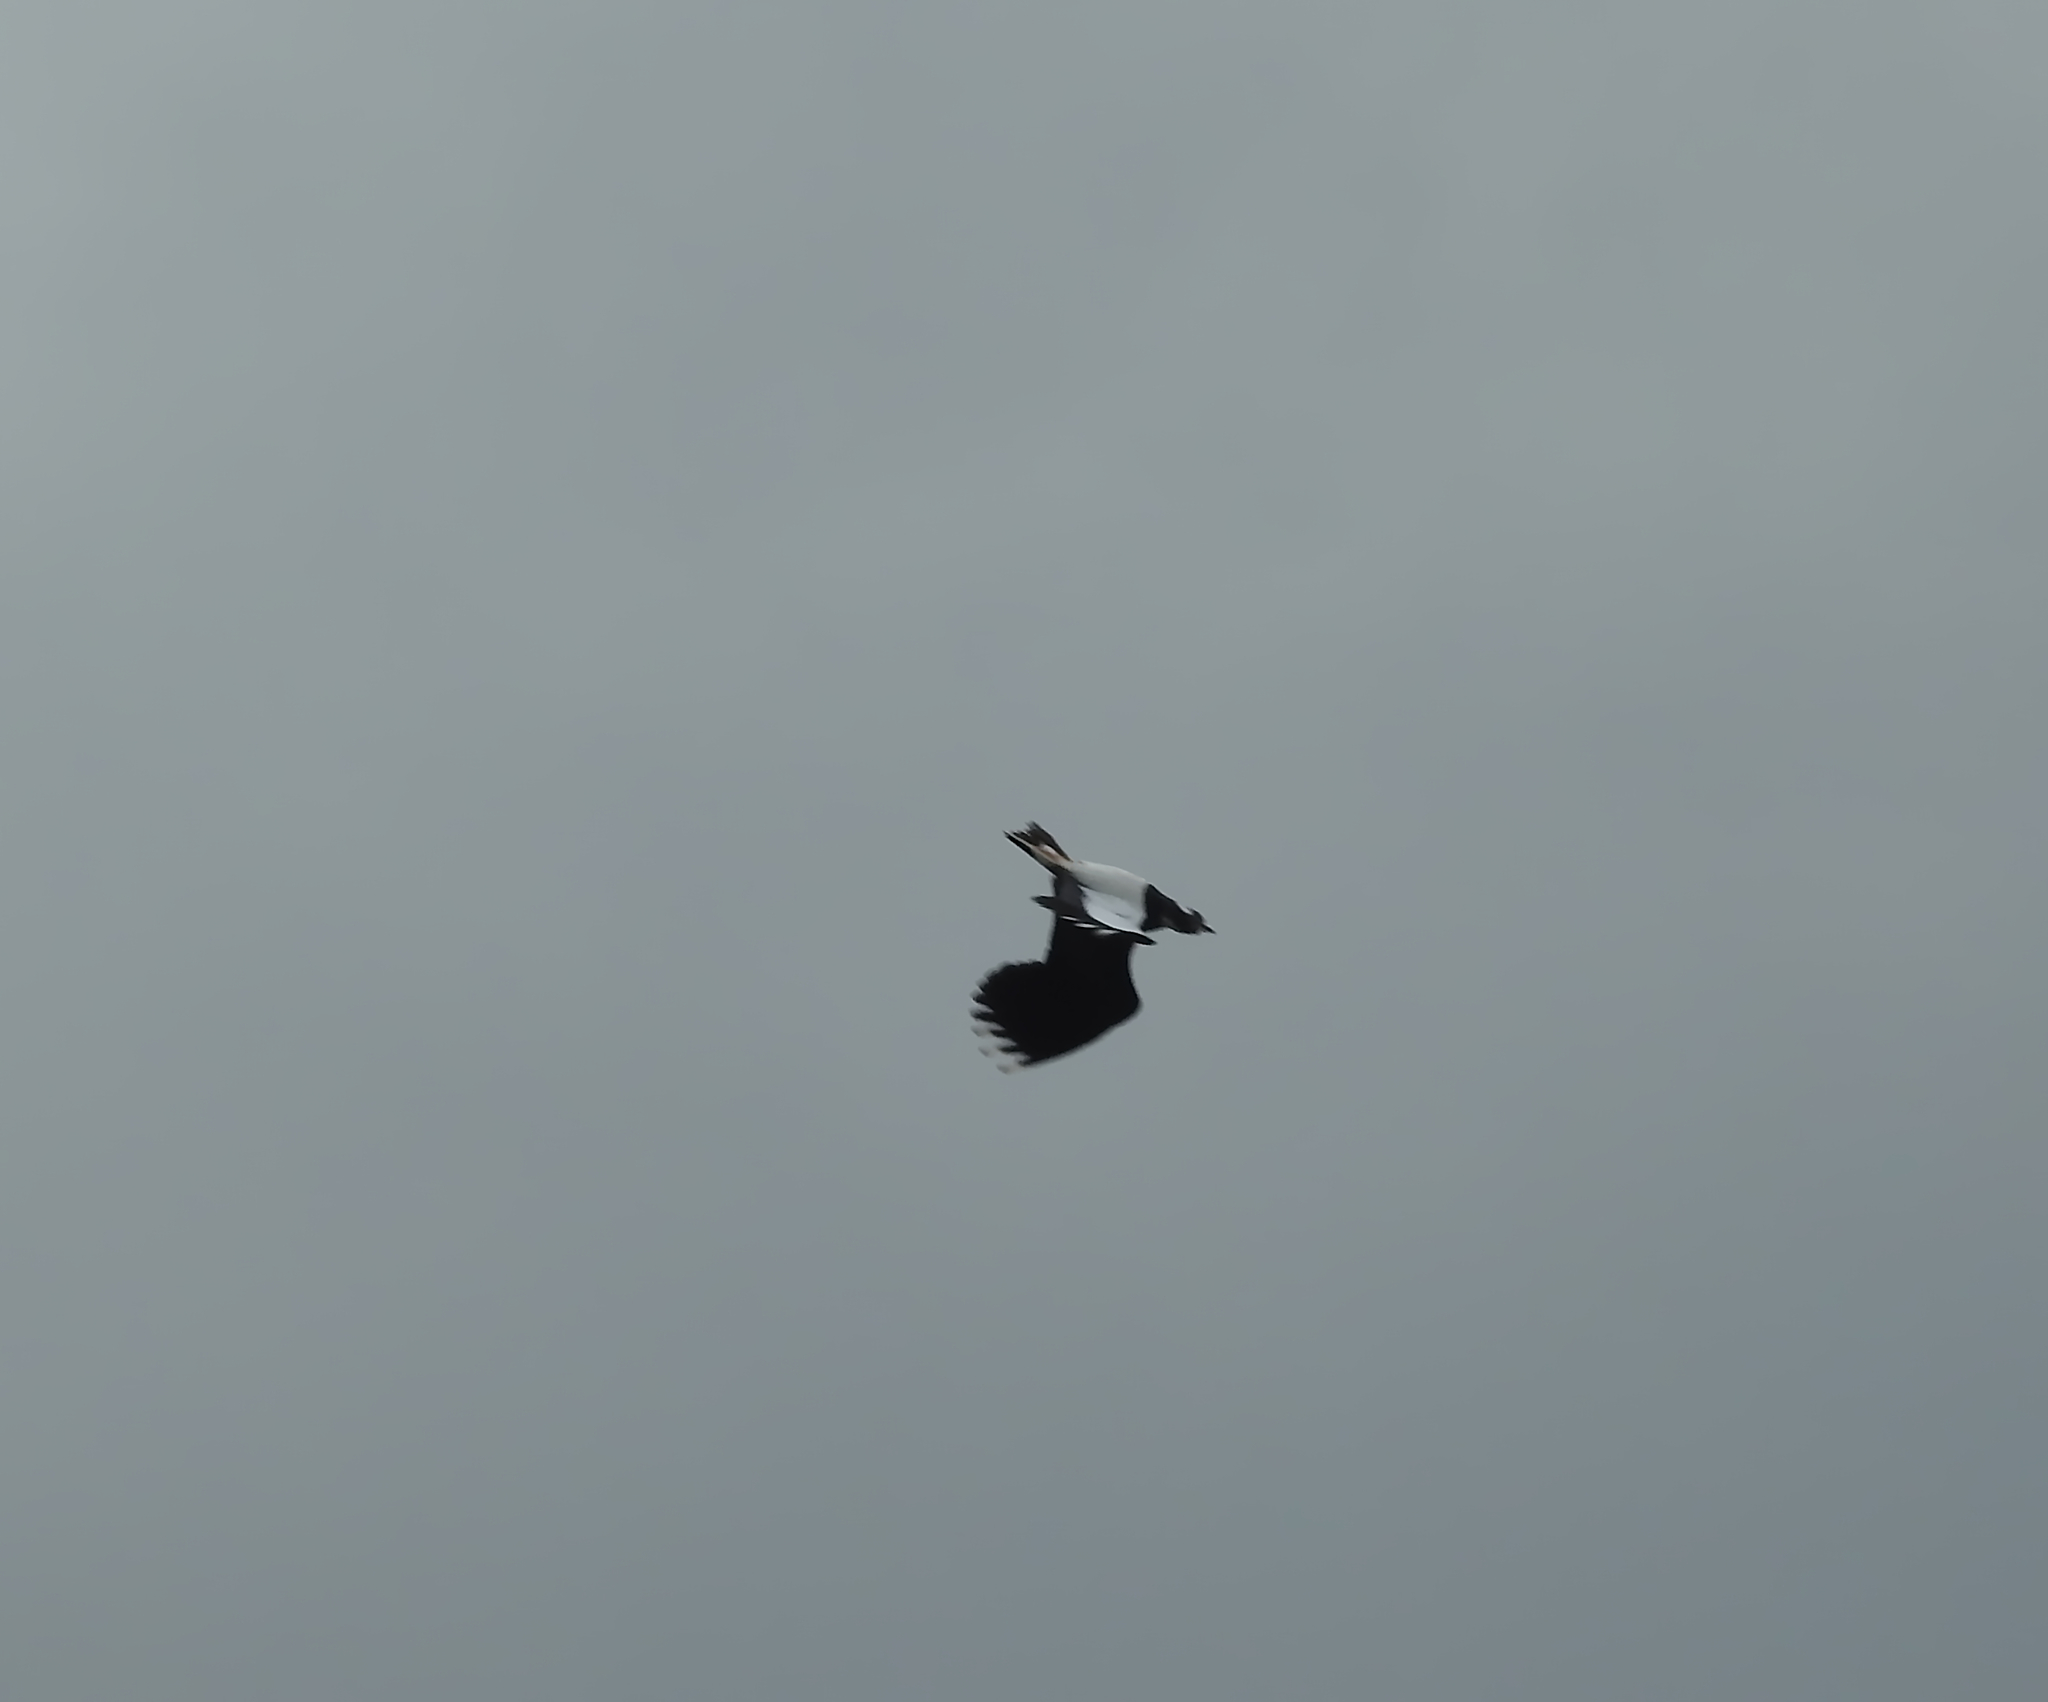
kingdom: Animalia
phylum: Chordata
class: Aves
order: Charadriiformes
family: Charadriidae
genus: Vanellus
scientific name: Vanellus vanellus
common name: Northern lapwing
